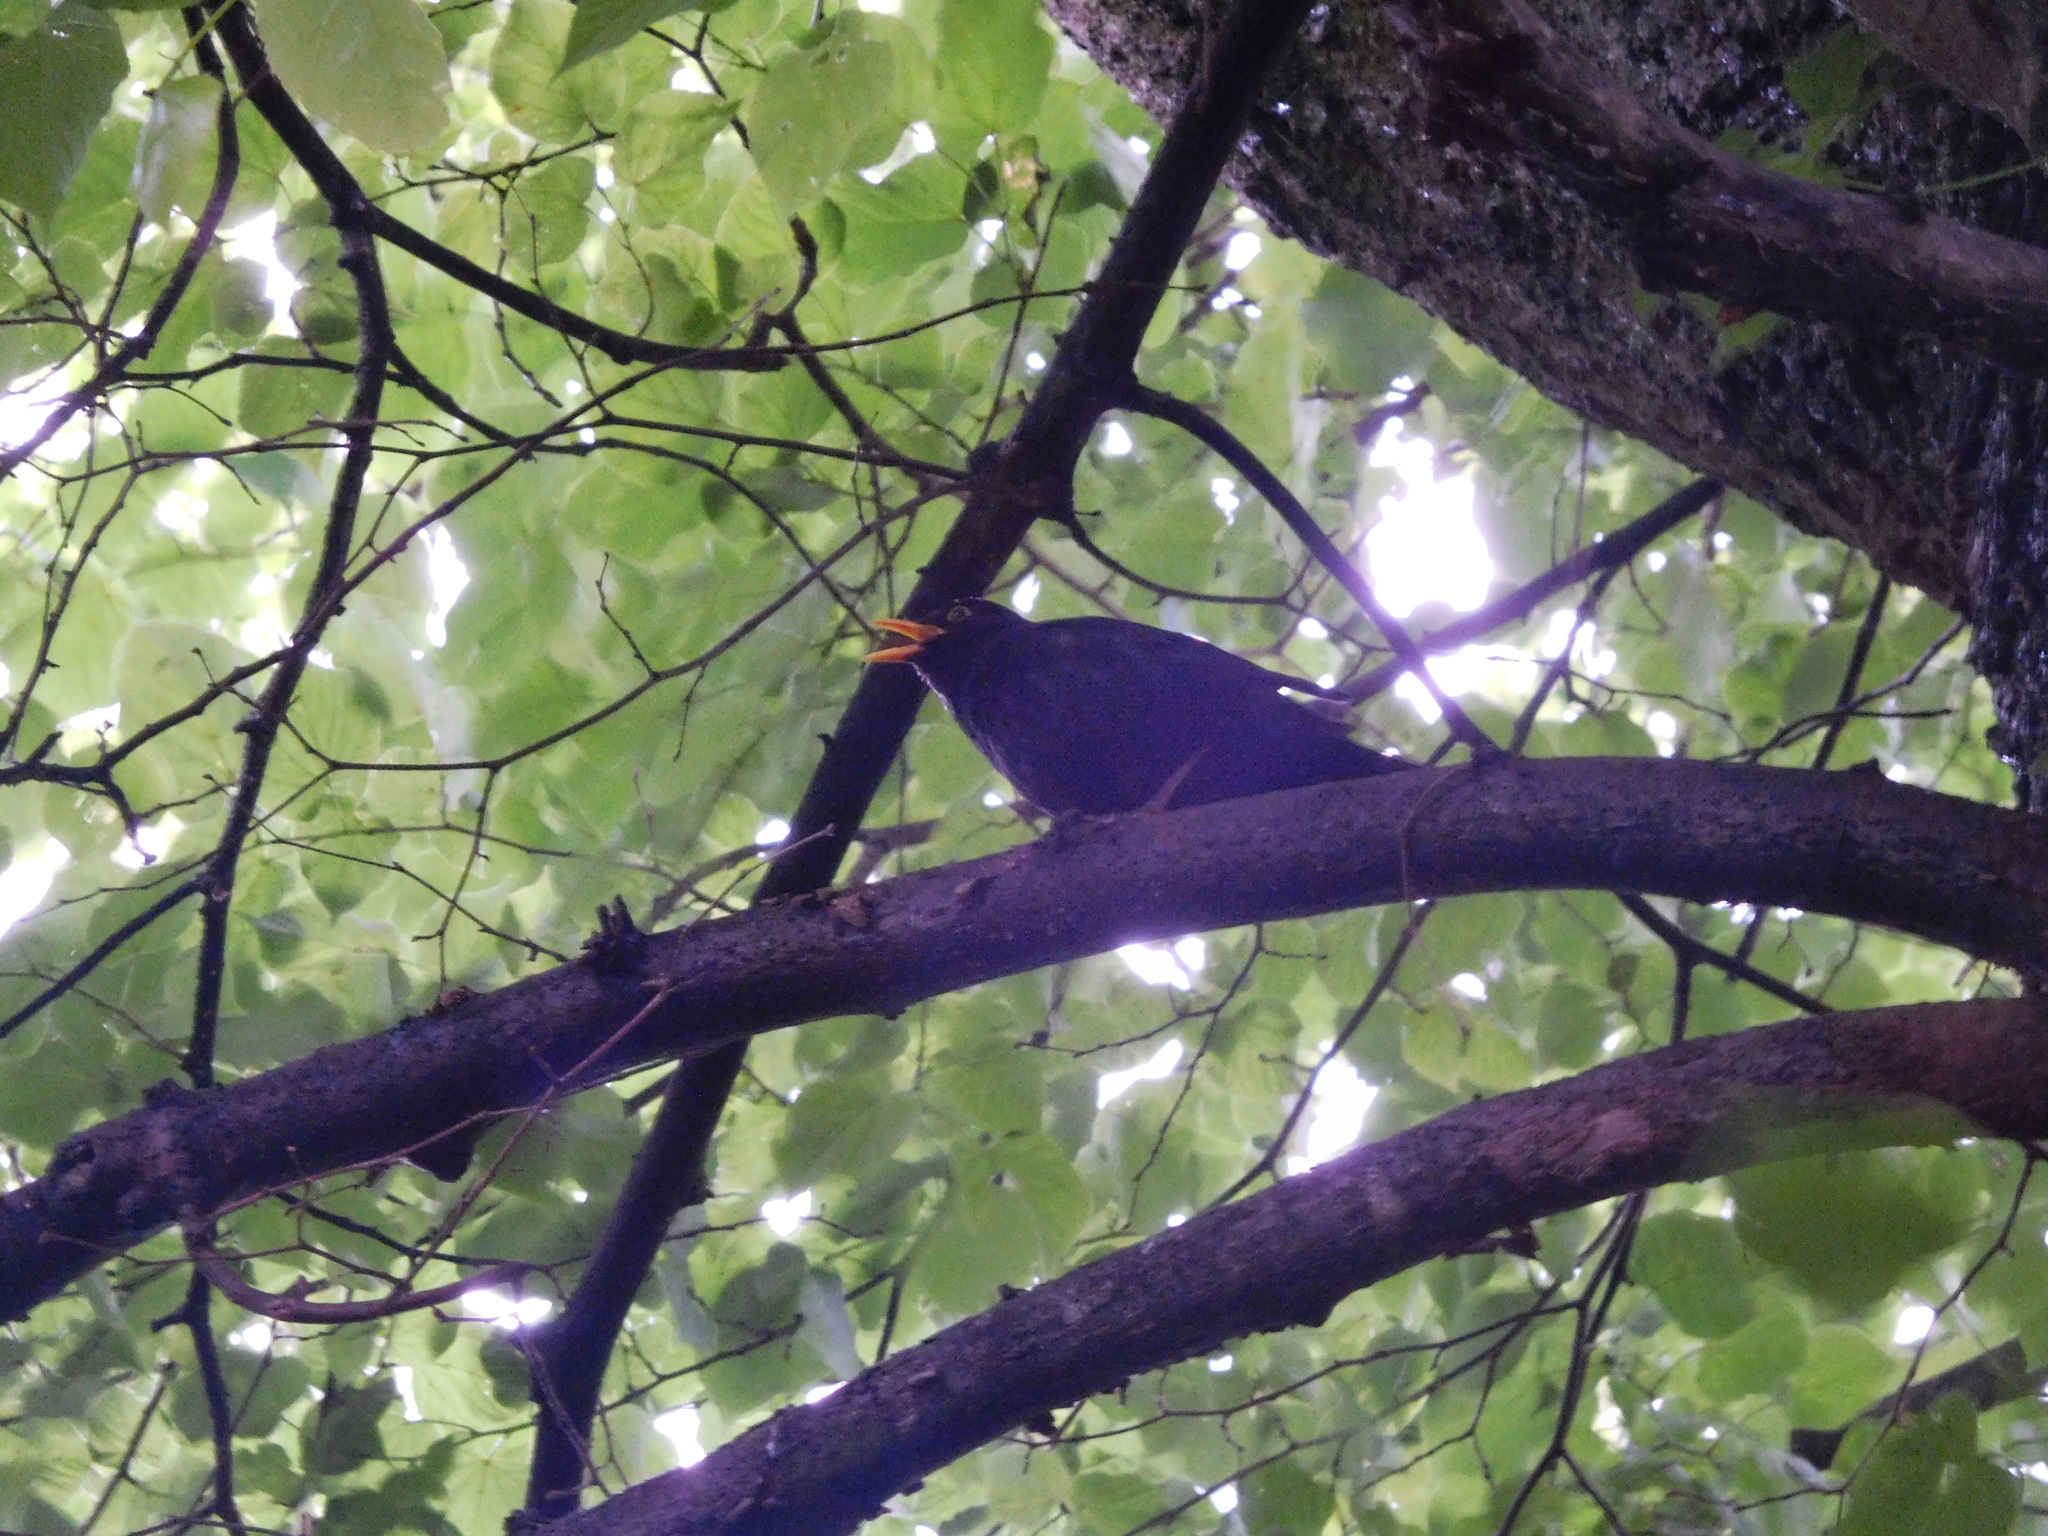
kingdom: Animalia
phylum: Chordata
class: Aves
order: Passeriformes
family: Turdidae
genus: Turdus
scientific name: Turdus merula
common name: Common blackbird
